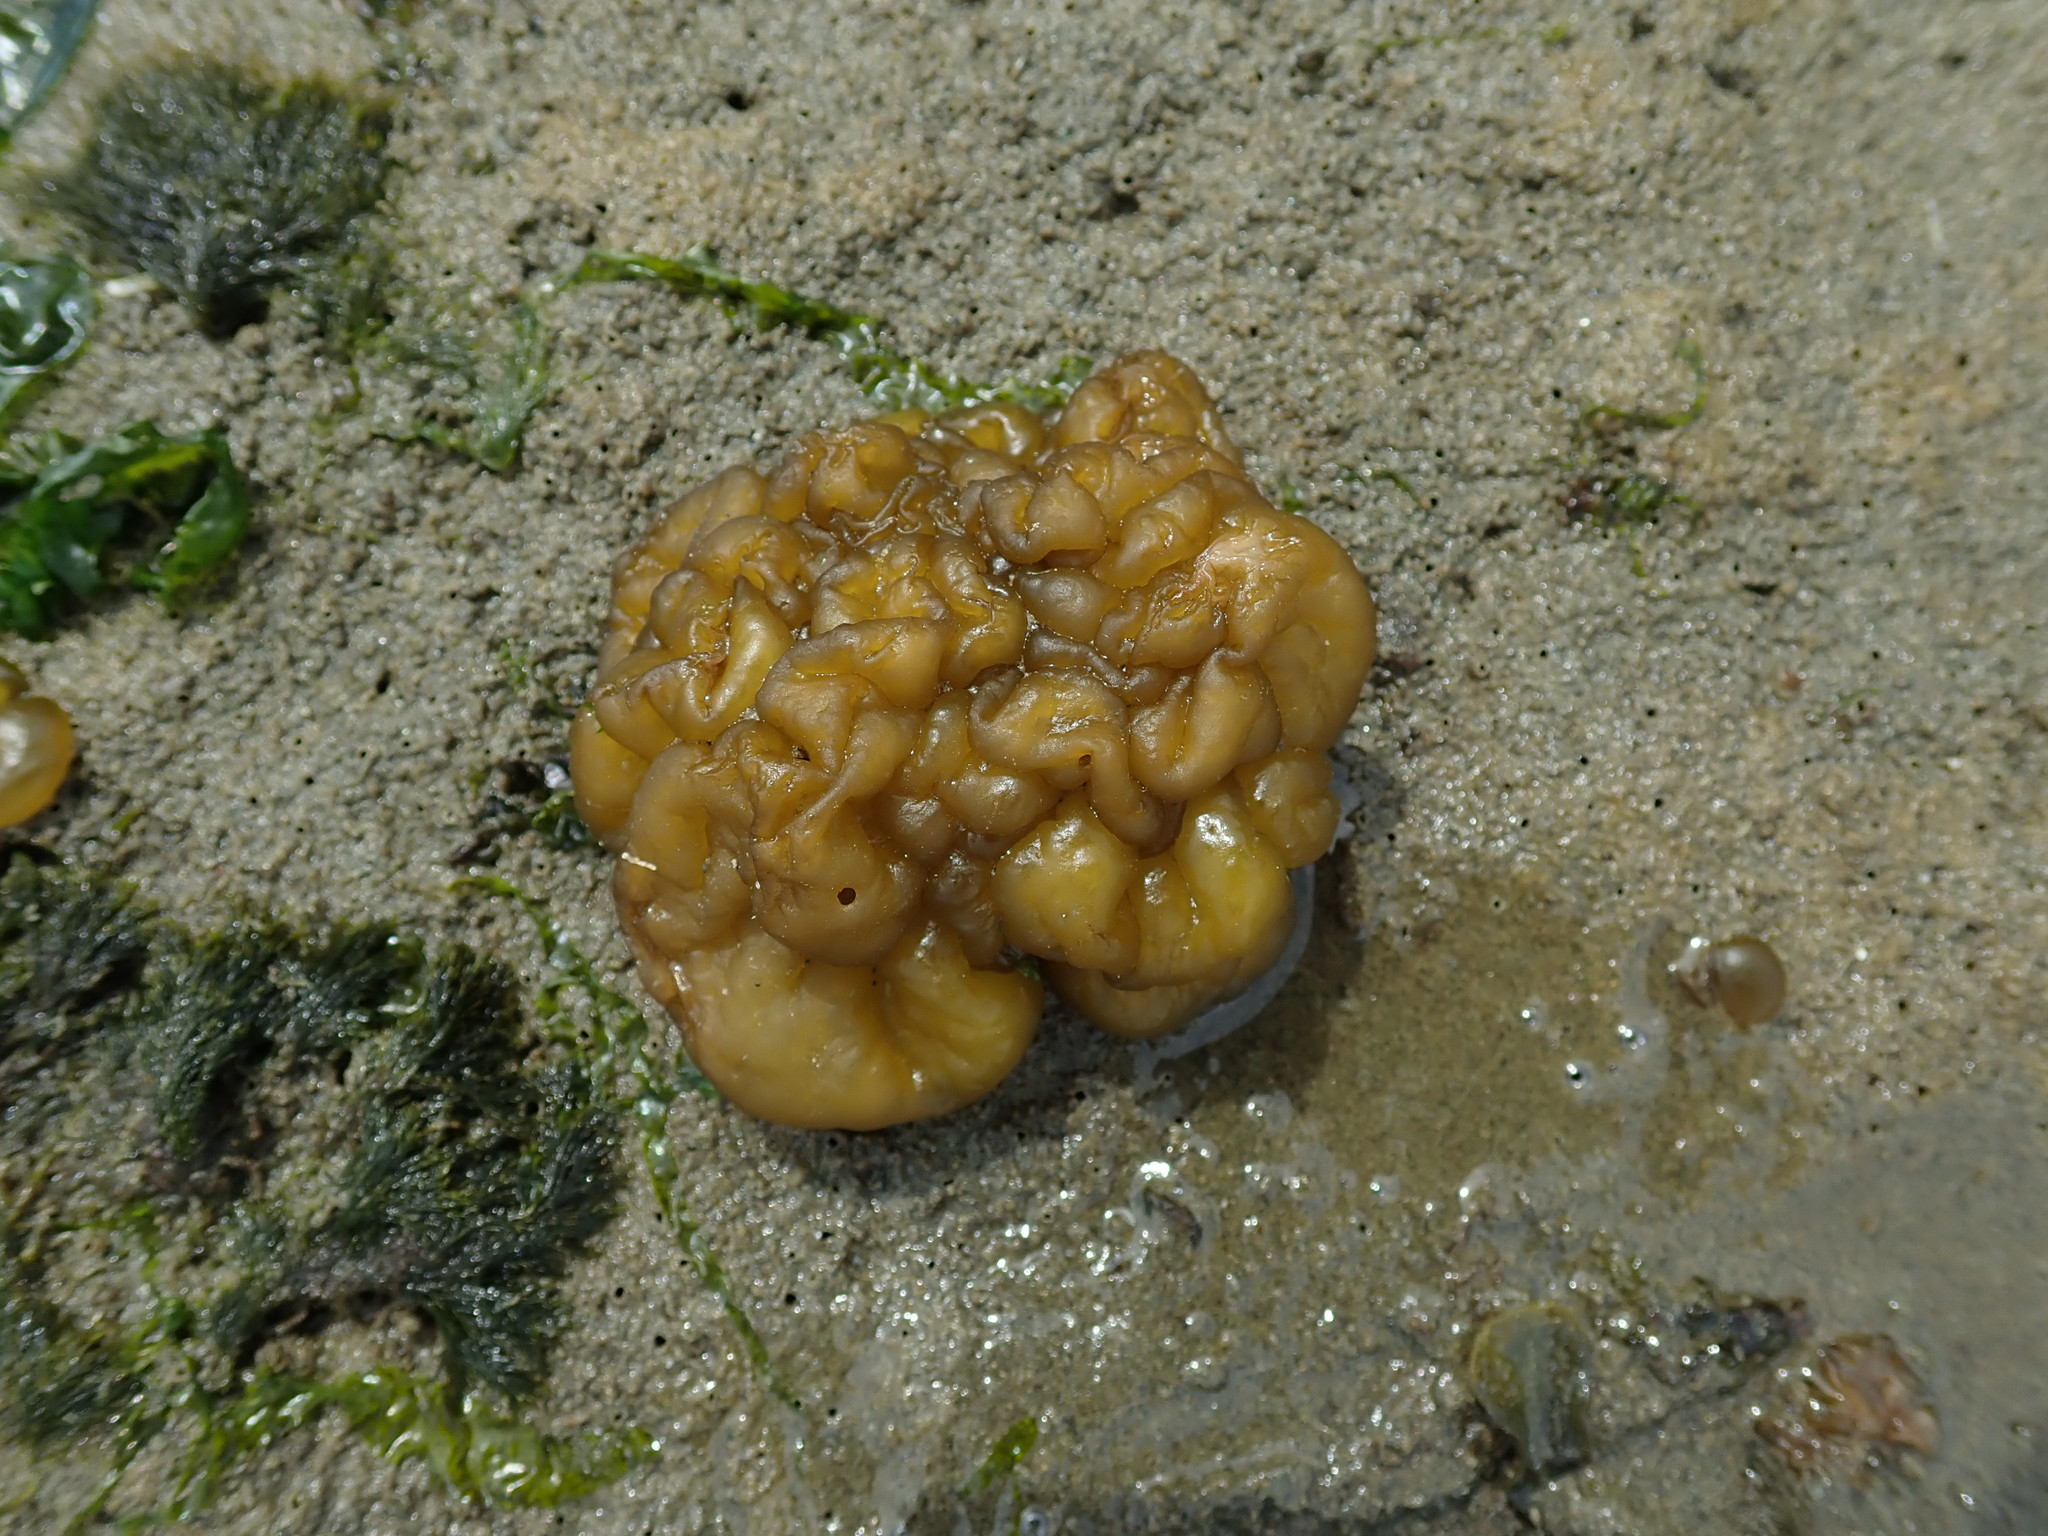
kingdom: Chromista
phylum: Ochrophyta
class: Phaeophyceae
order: Ectocarpales
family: Chordariaceae
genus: Leathesia
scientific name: Leathesia marina
